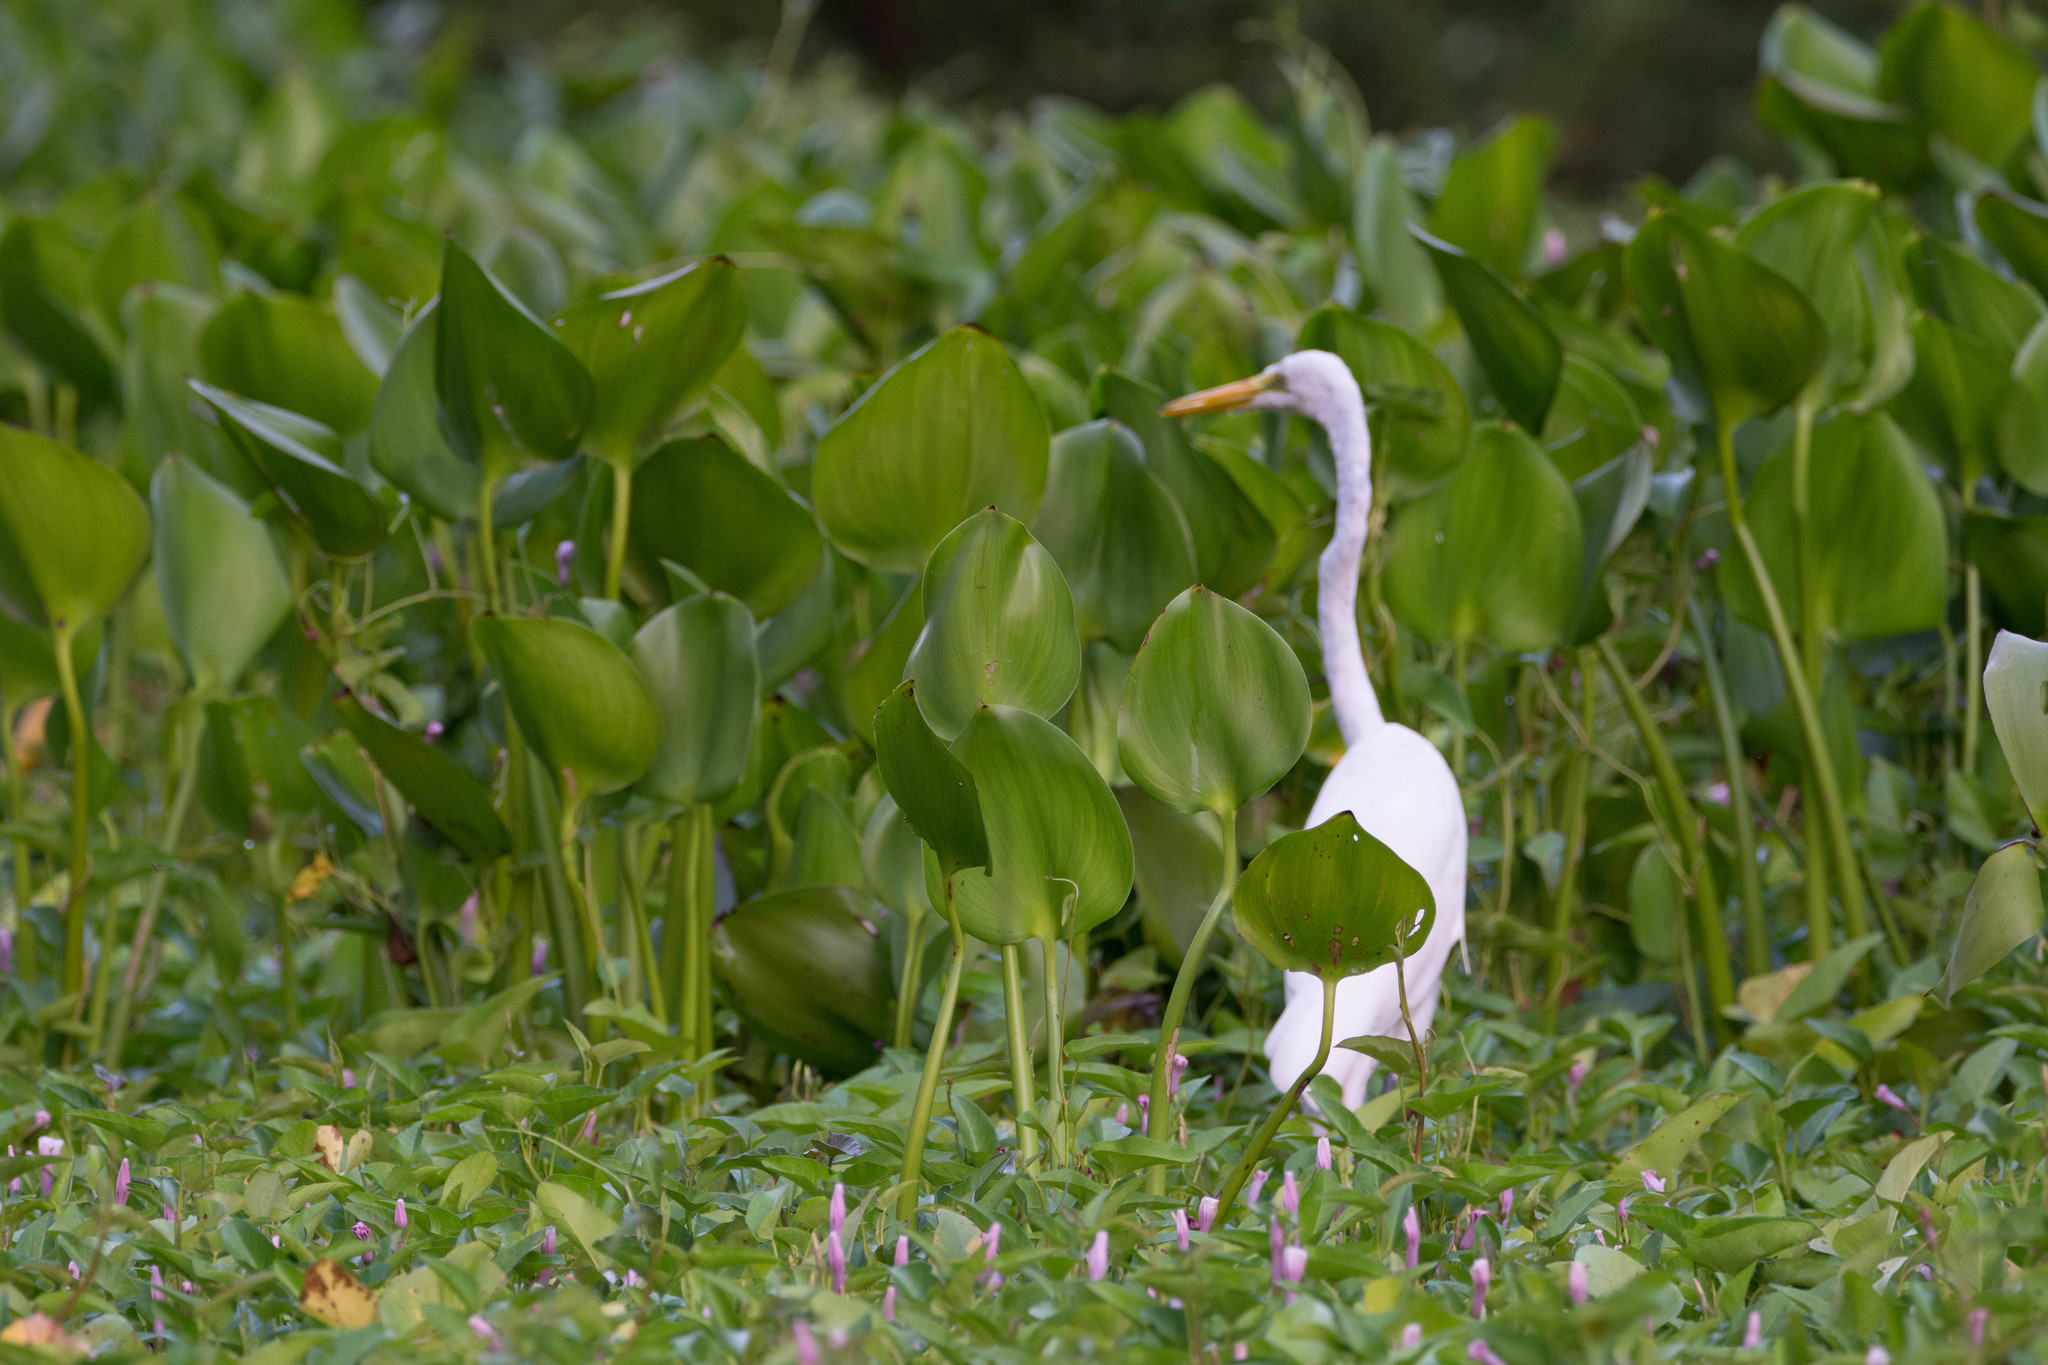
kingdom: Animalia
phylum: Chordata
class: Aves
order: Pelecaniformes
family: Ardeidae
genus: Ardea
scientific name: Ardea alba
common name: Great egret
